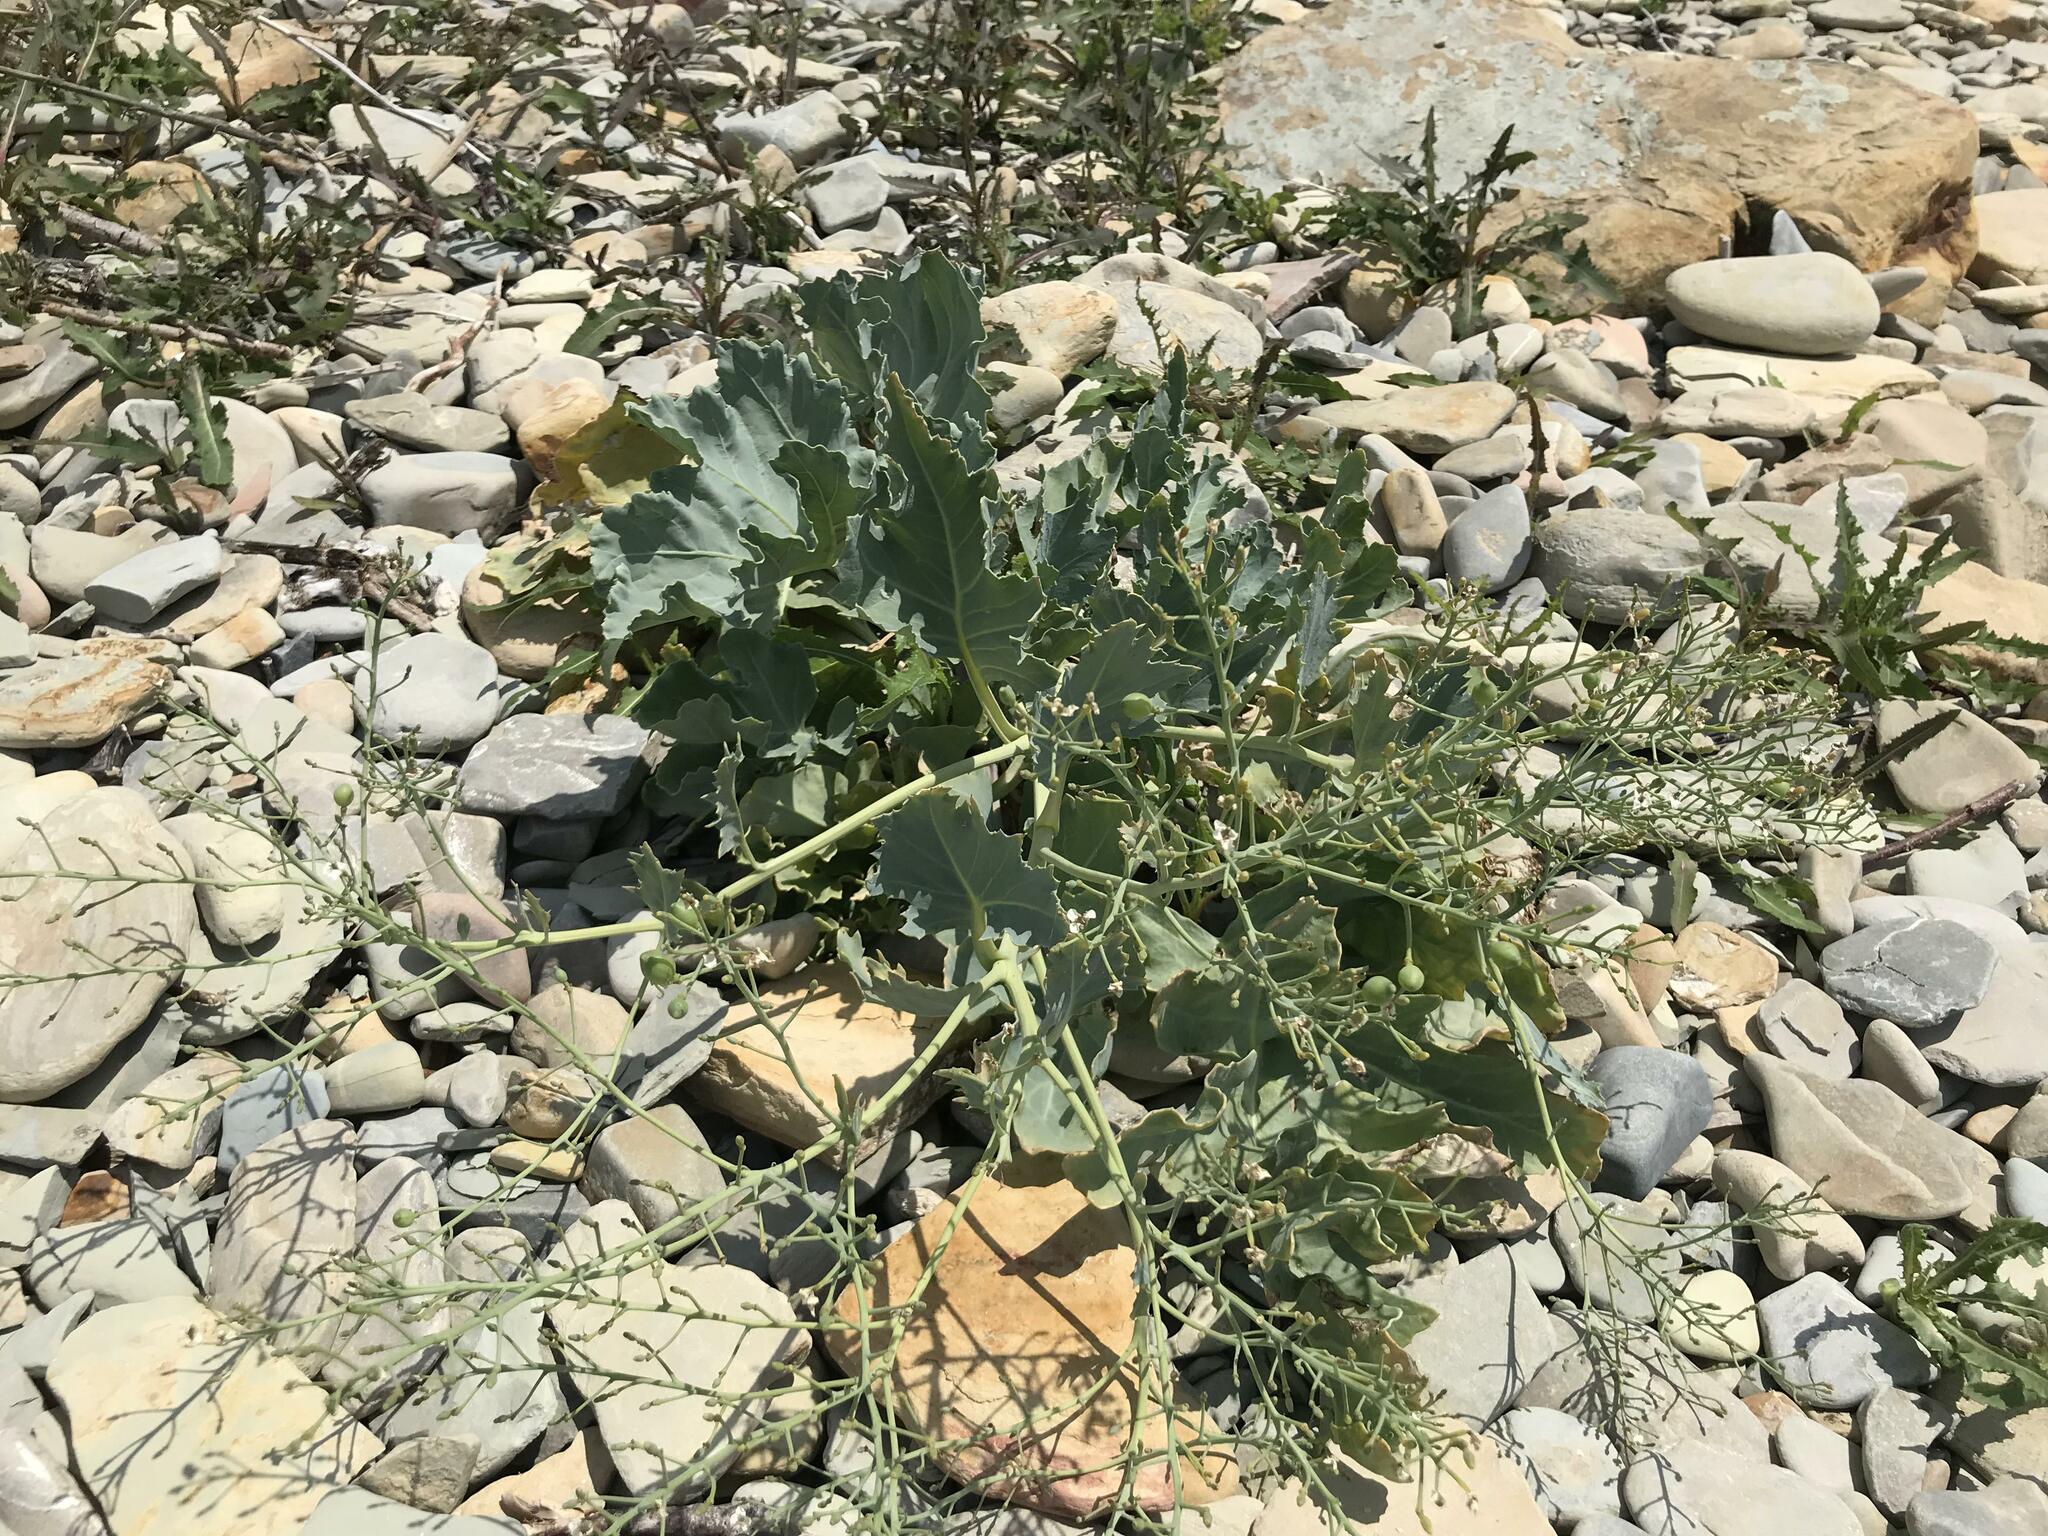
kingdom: Plantae
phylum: Tracheophyta
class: Magnoliopsida
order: Brassicales
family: Brassicaceae
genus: Crambe
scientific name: Crambe maritima
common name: Sea-kale
